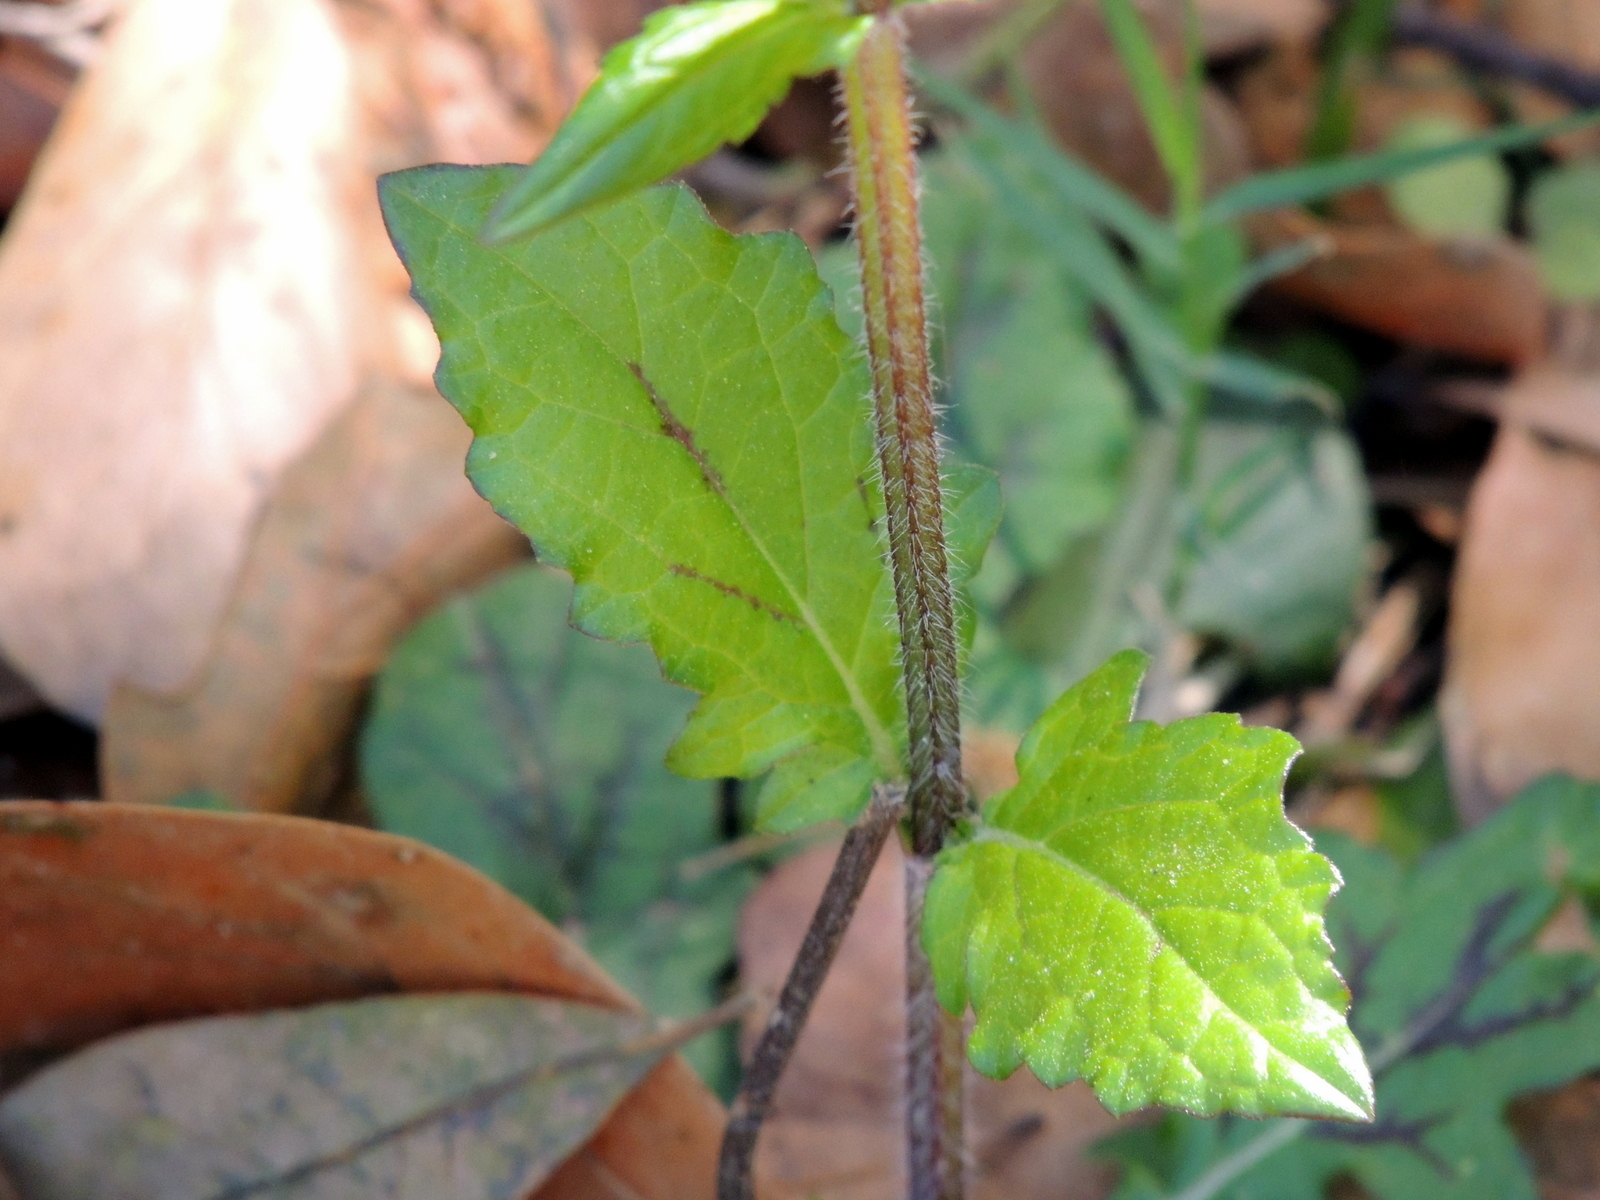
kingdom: Plantae
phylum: Tracheophyta
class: Magnoliopsida
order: Lamiales
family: Lamiaceae
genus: Salvia
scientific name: Salvia lyrata
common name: Cancerweed
